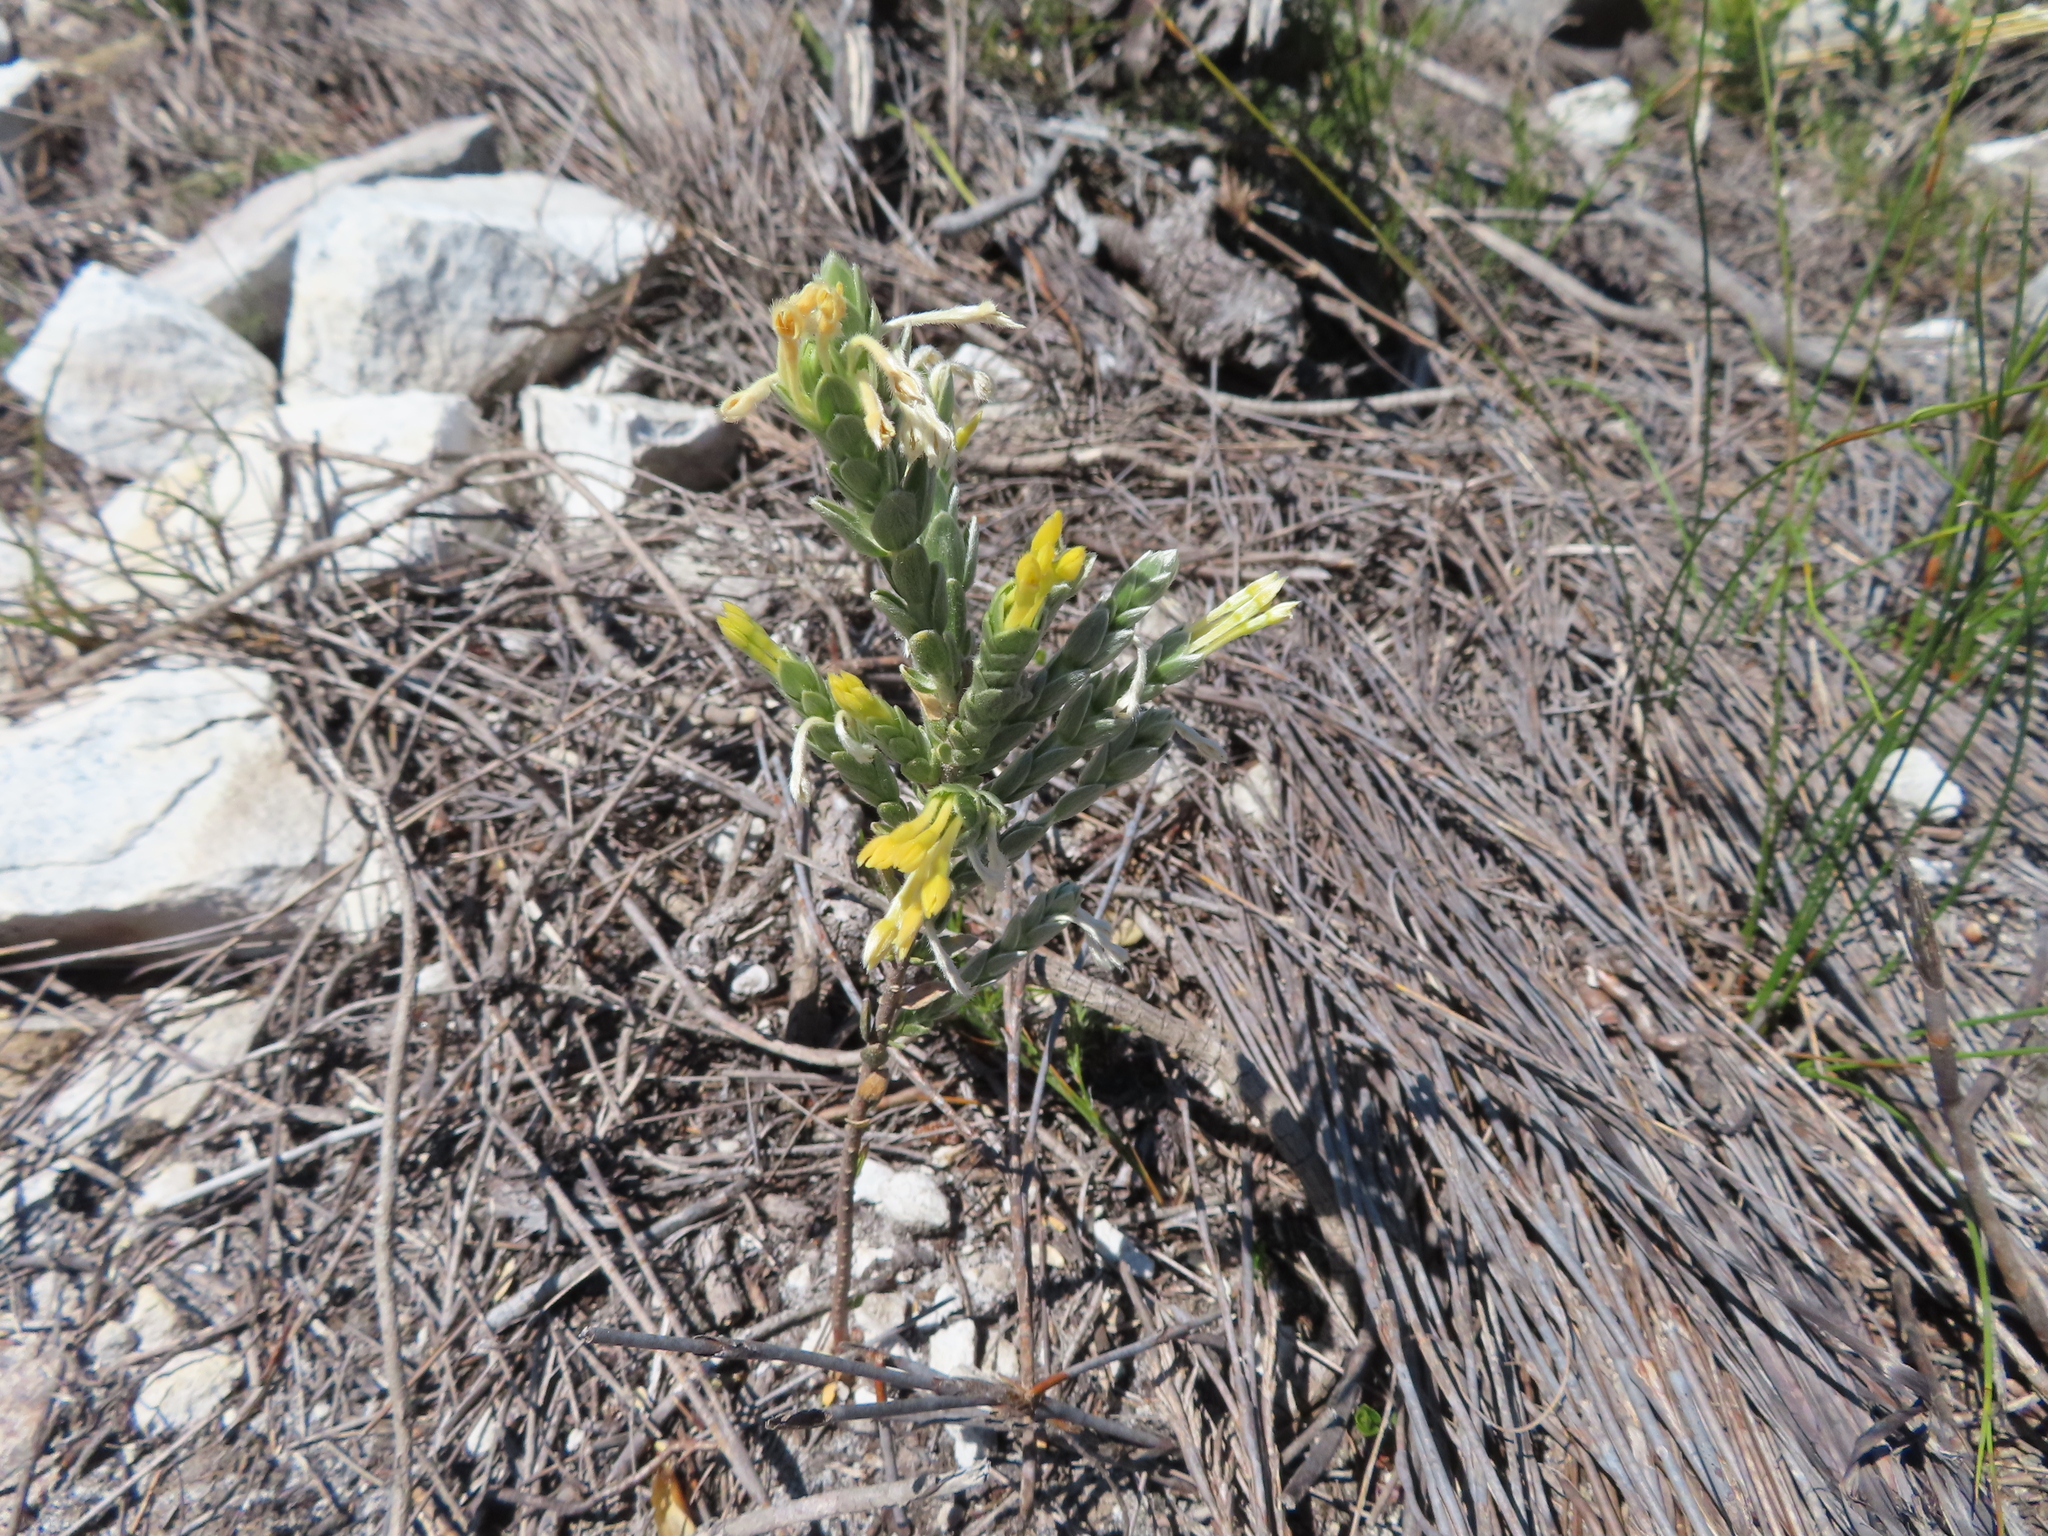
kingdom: Plantae
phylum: Tracheophyta
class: Magnoliopsida
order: Malvales
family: Thymelaeaceae
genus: Gnidia
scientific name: Gnidia anomala
